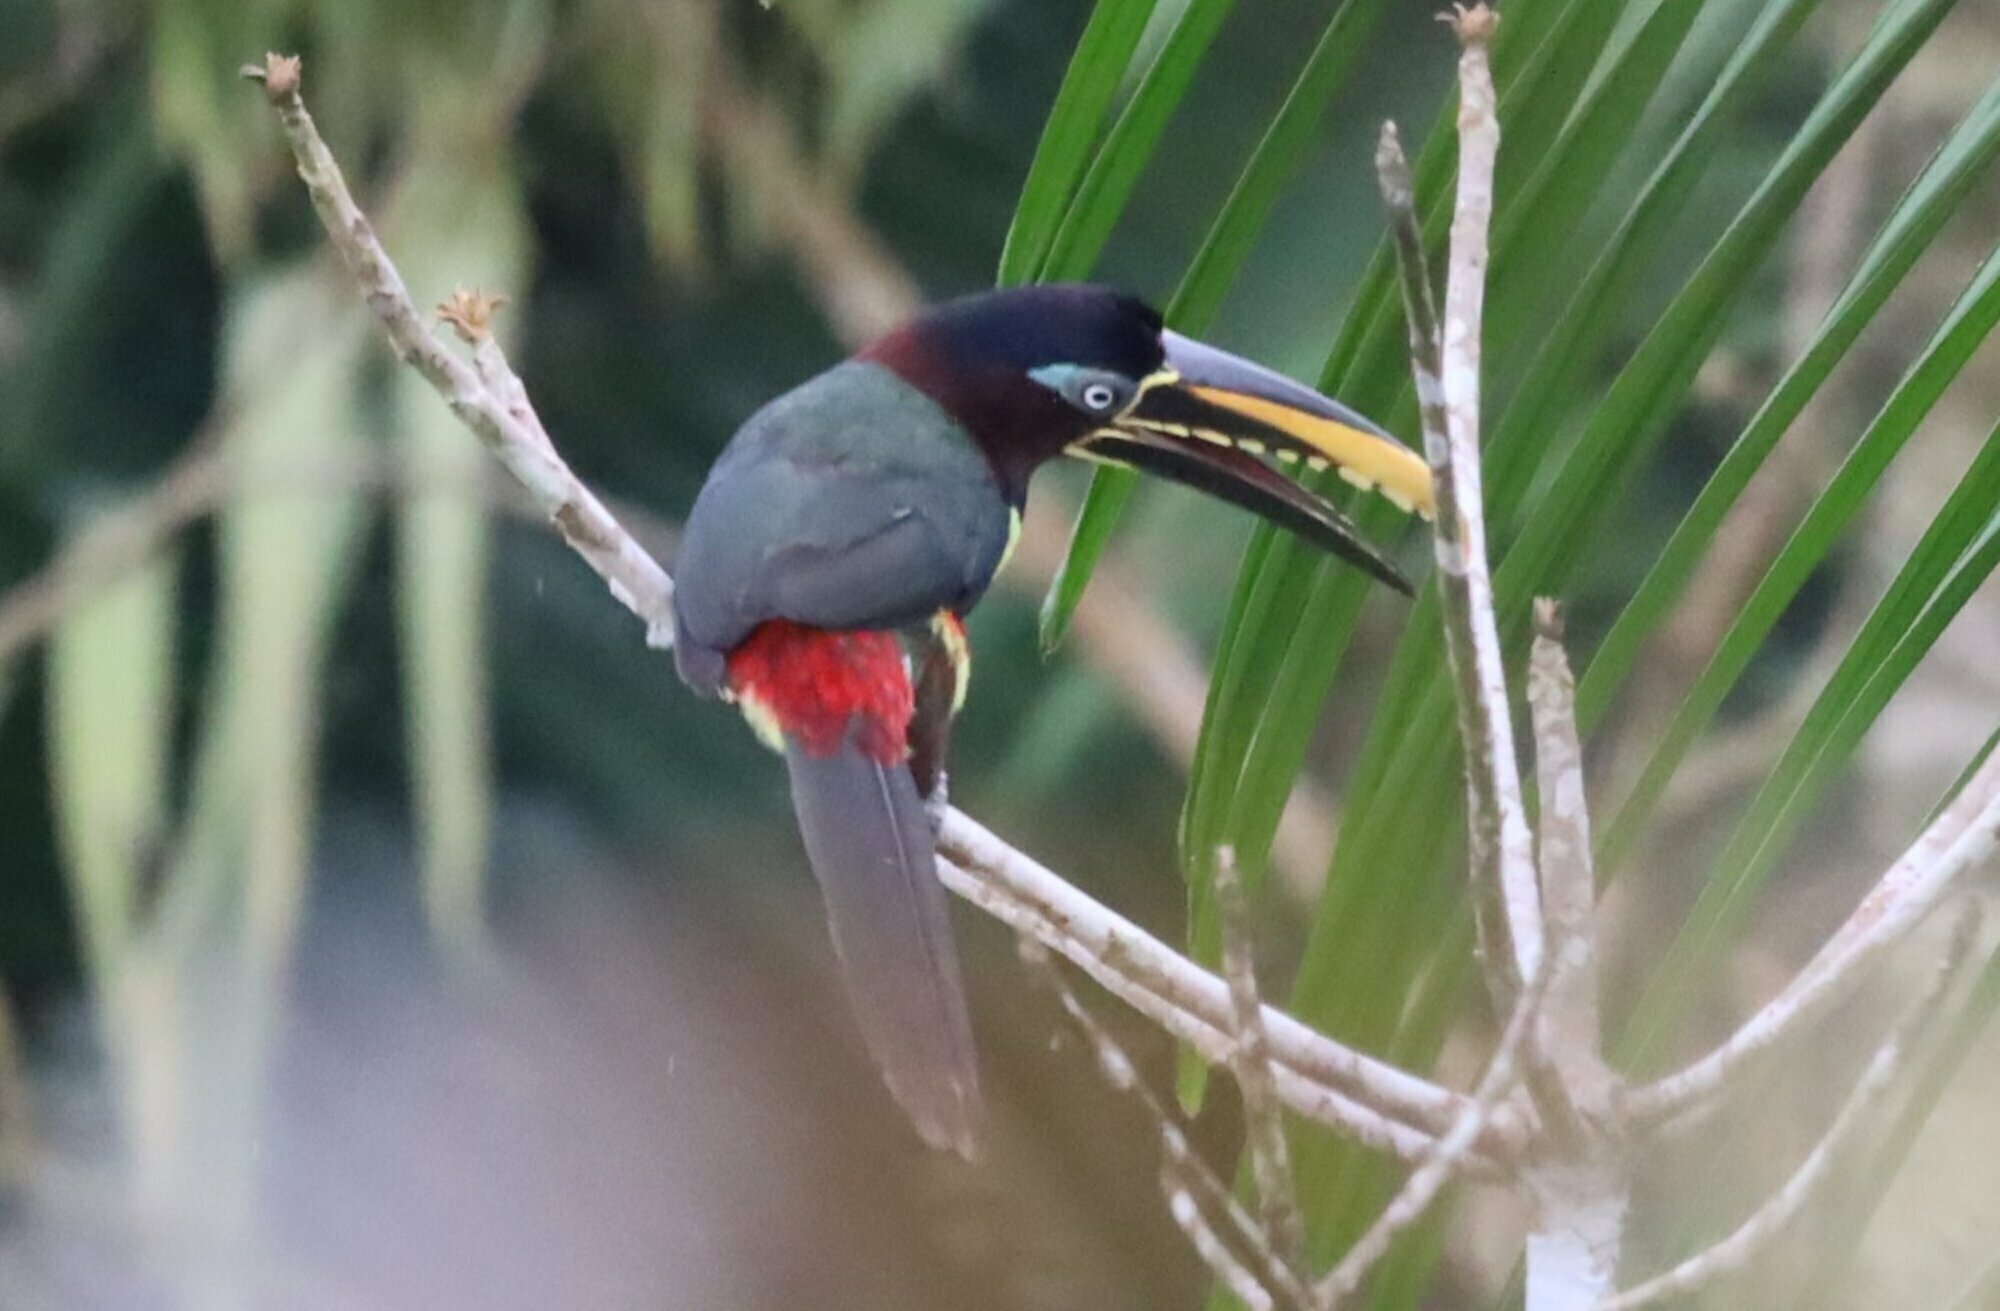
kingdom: Animalia
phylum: Chordata
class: Aves
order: Piciformes
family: Ramphastidae
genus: Pteroglossus
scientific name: Pteroglossus castanotis
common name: Chestnut-eared aracari
